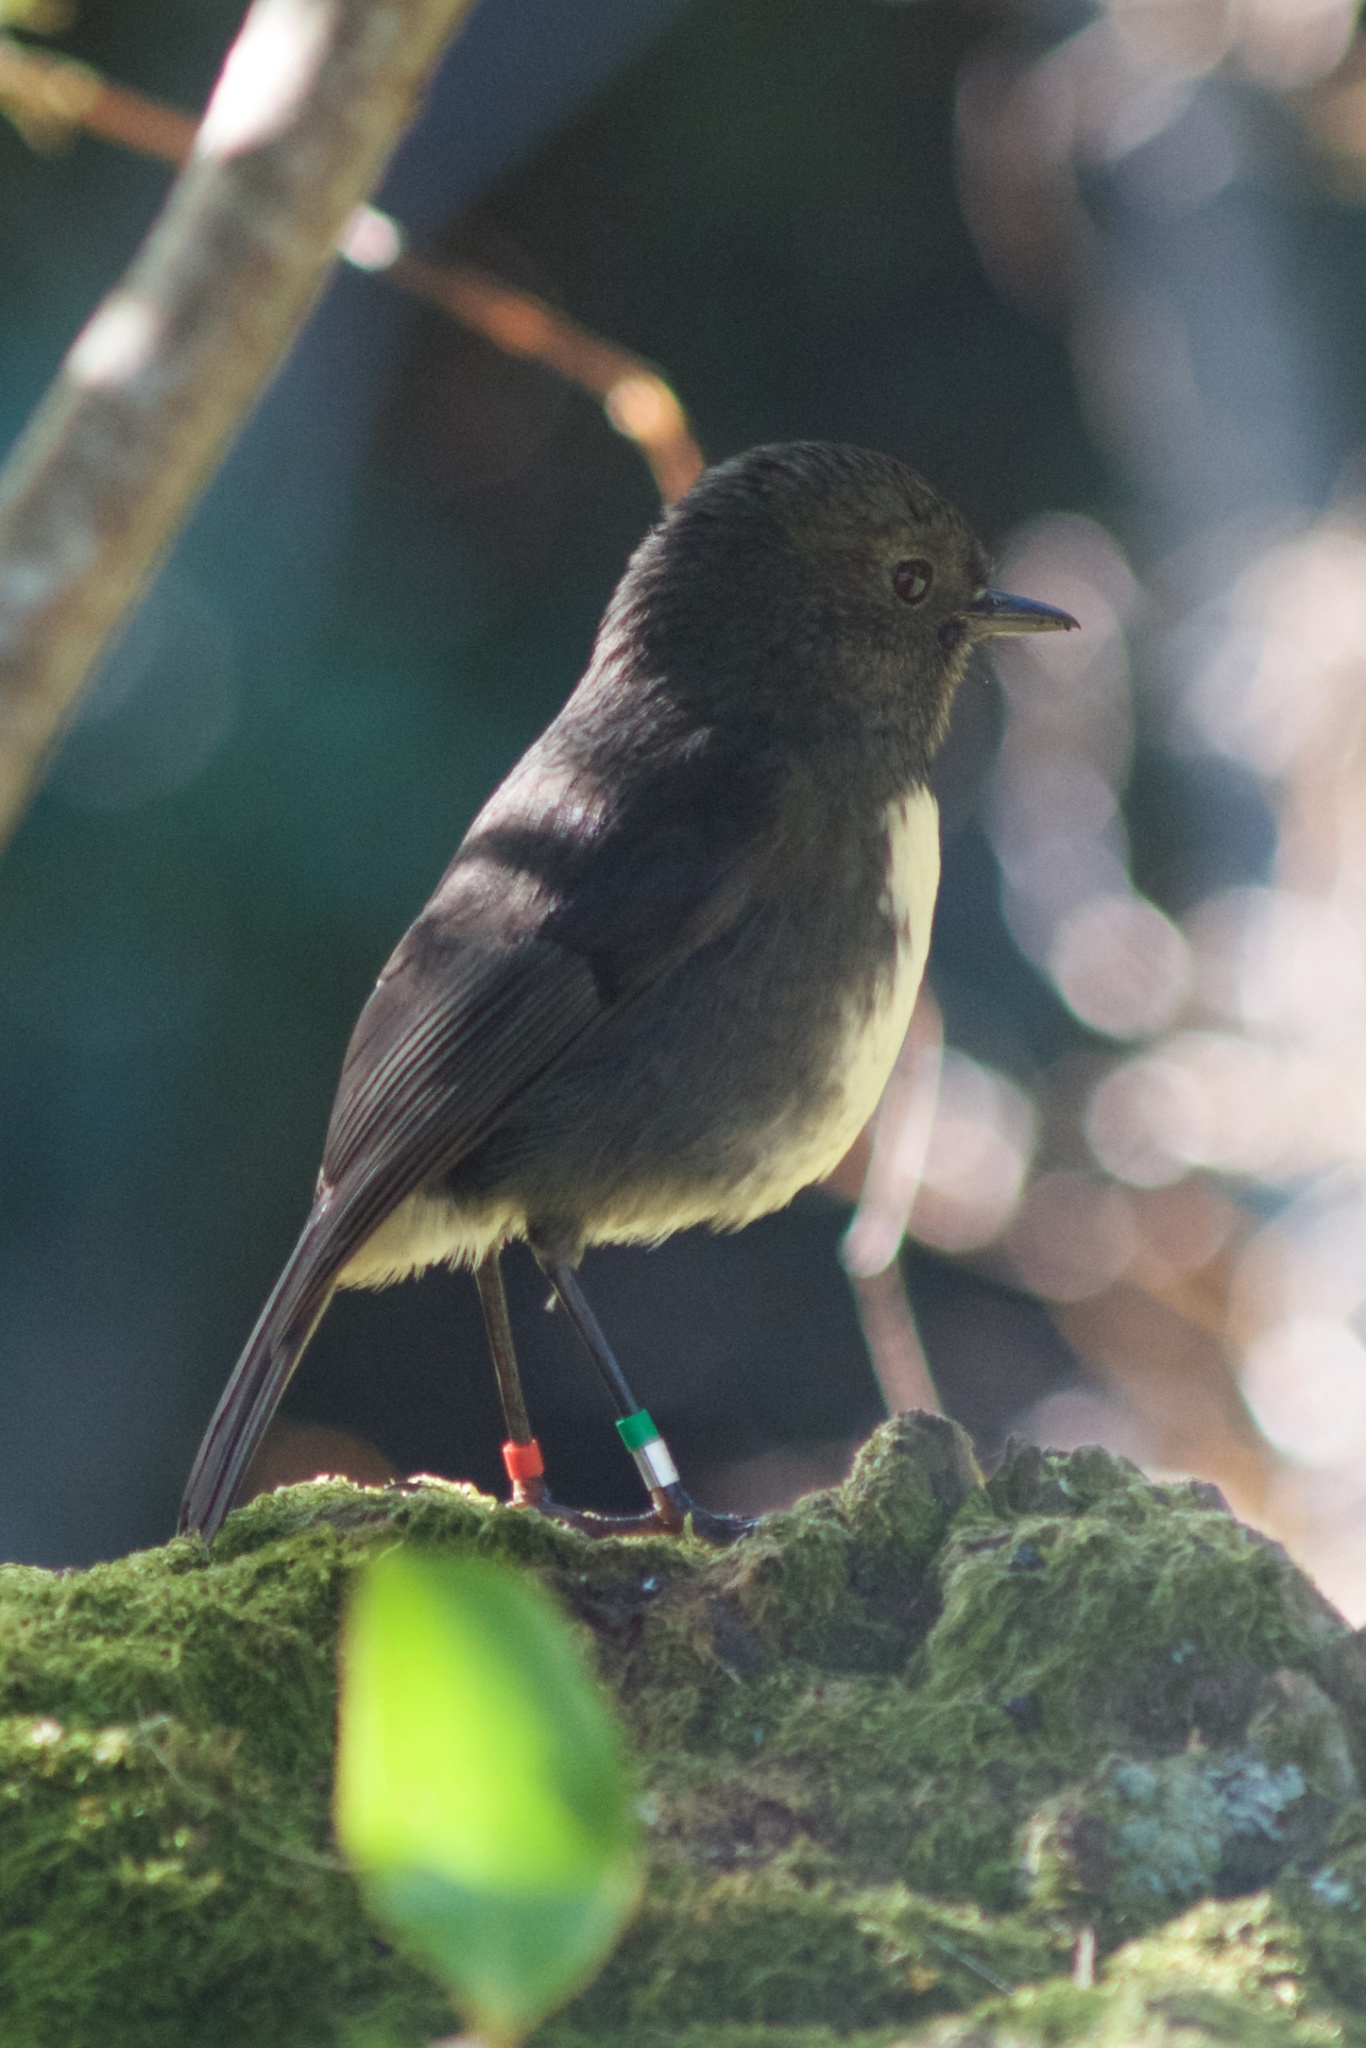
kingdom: Animalia
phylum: Chordata
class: Aves
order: Passeriformes
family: Petroicidae
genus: Petroica
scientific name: Petroica australis
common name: New zealand robin
